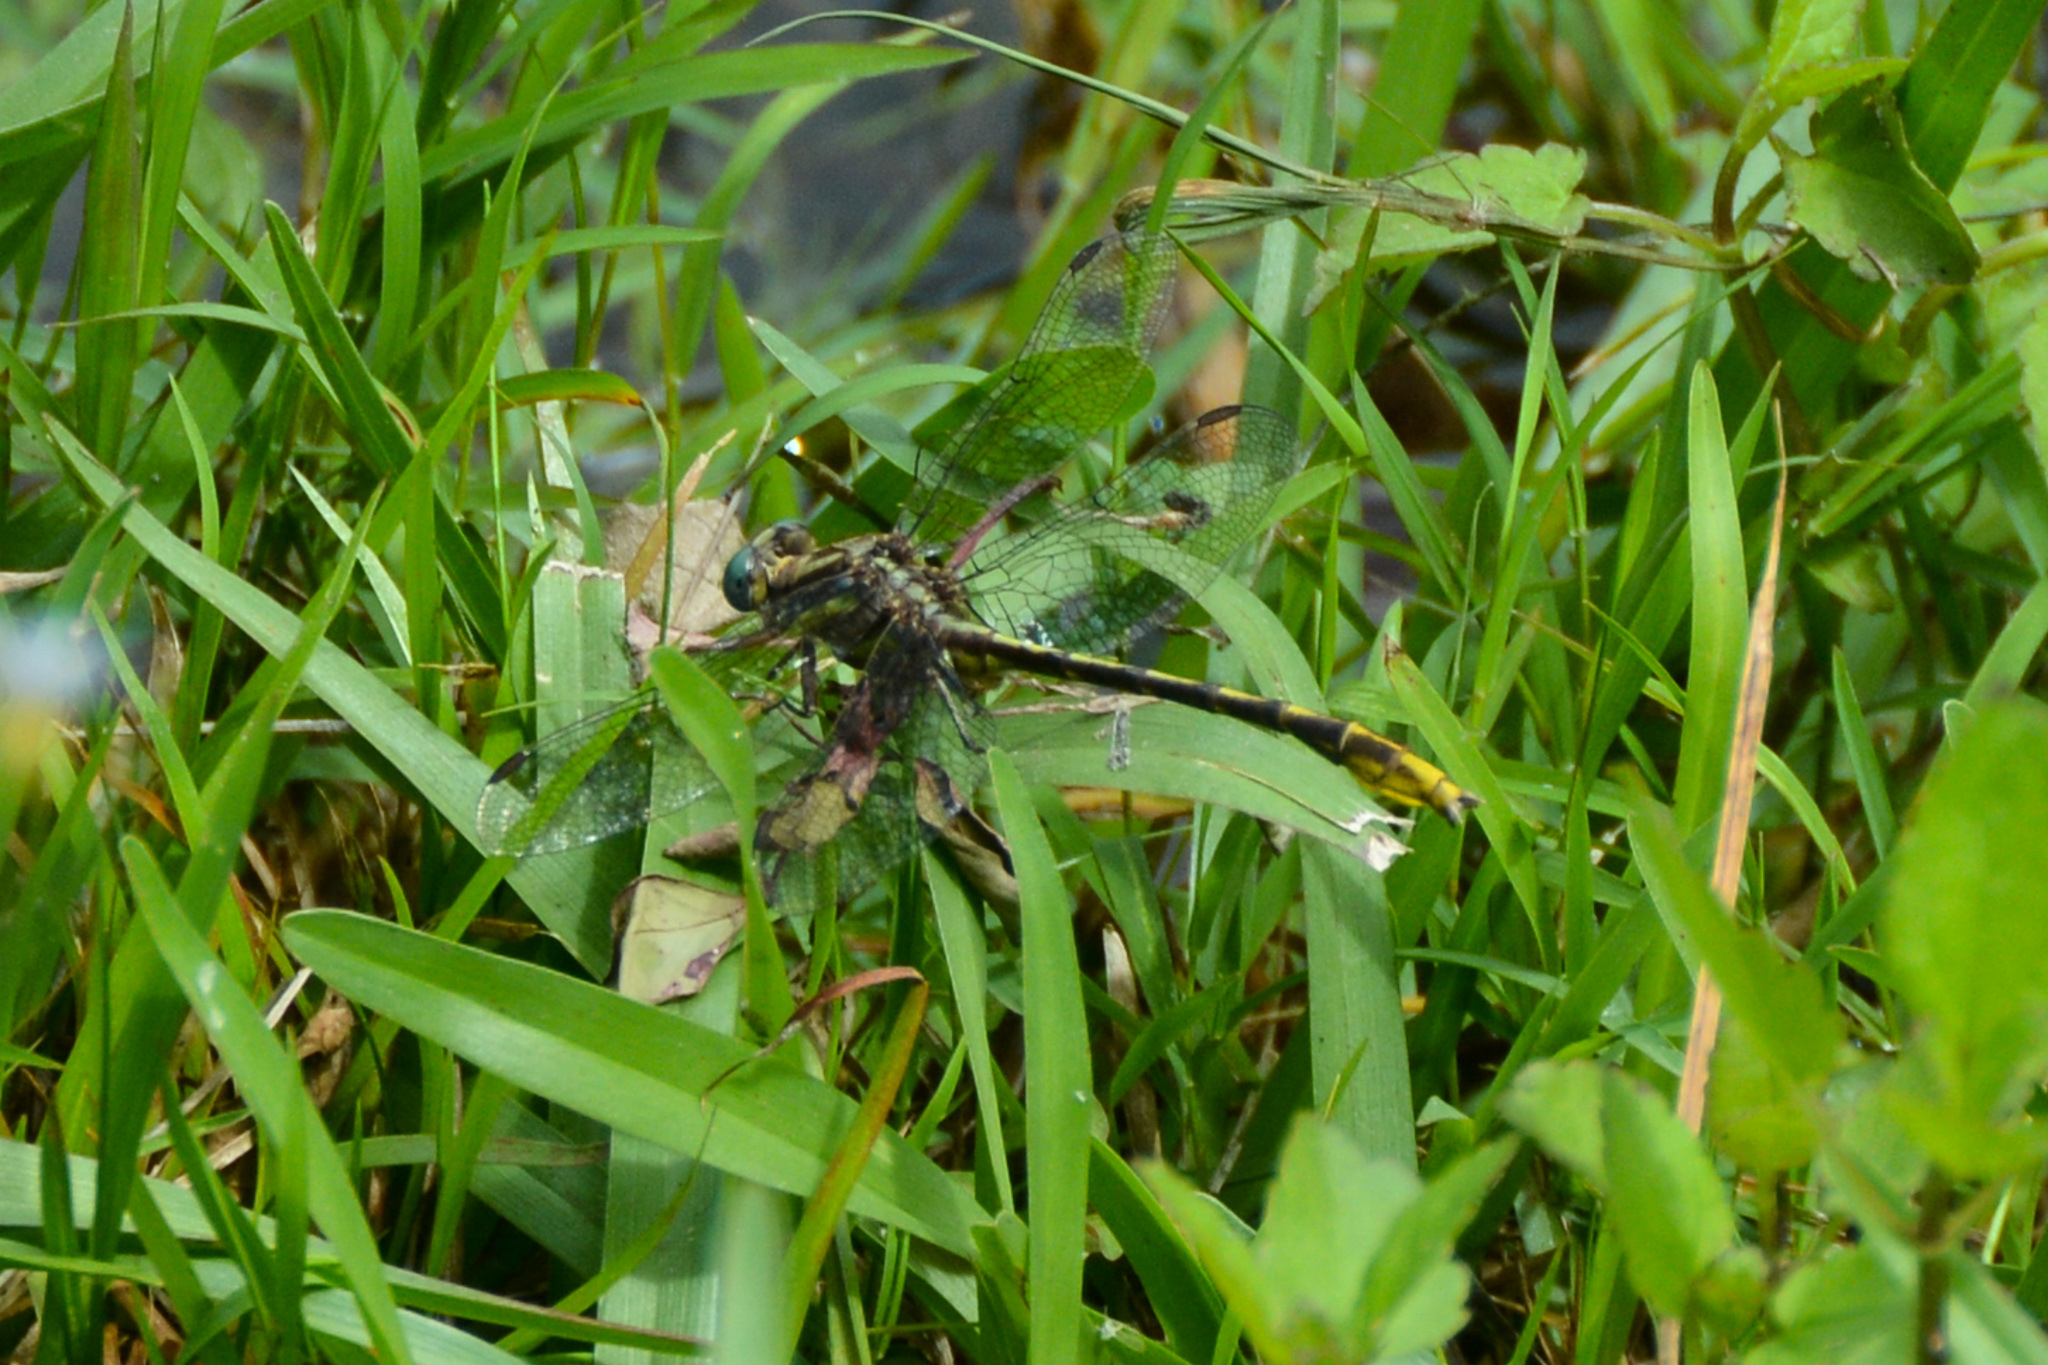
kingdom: Animalia
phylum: Arthropoda
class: Insecta
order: Odonata
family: Gomphidae
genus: Phanogomphus
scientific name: Phanogomphus exilis
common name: Lancet clubtail
